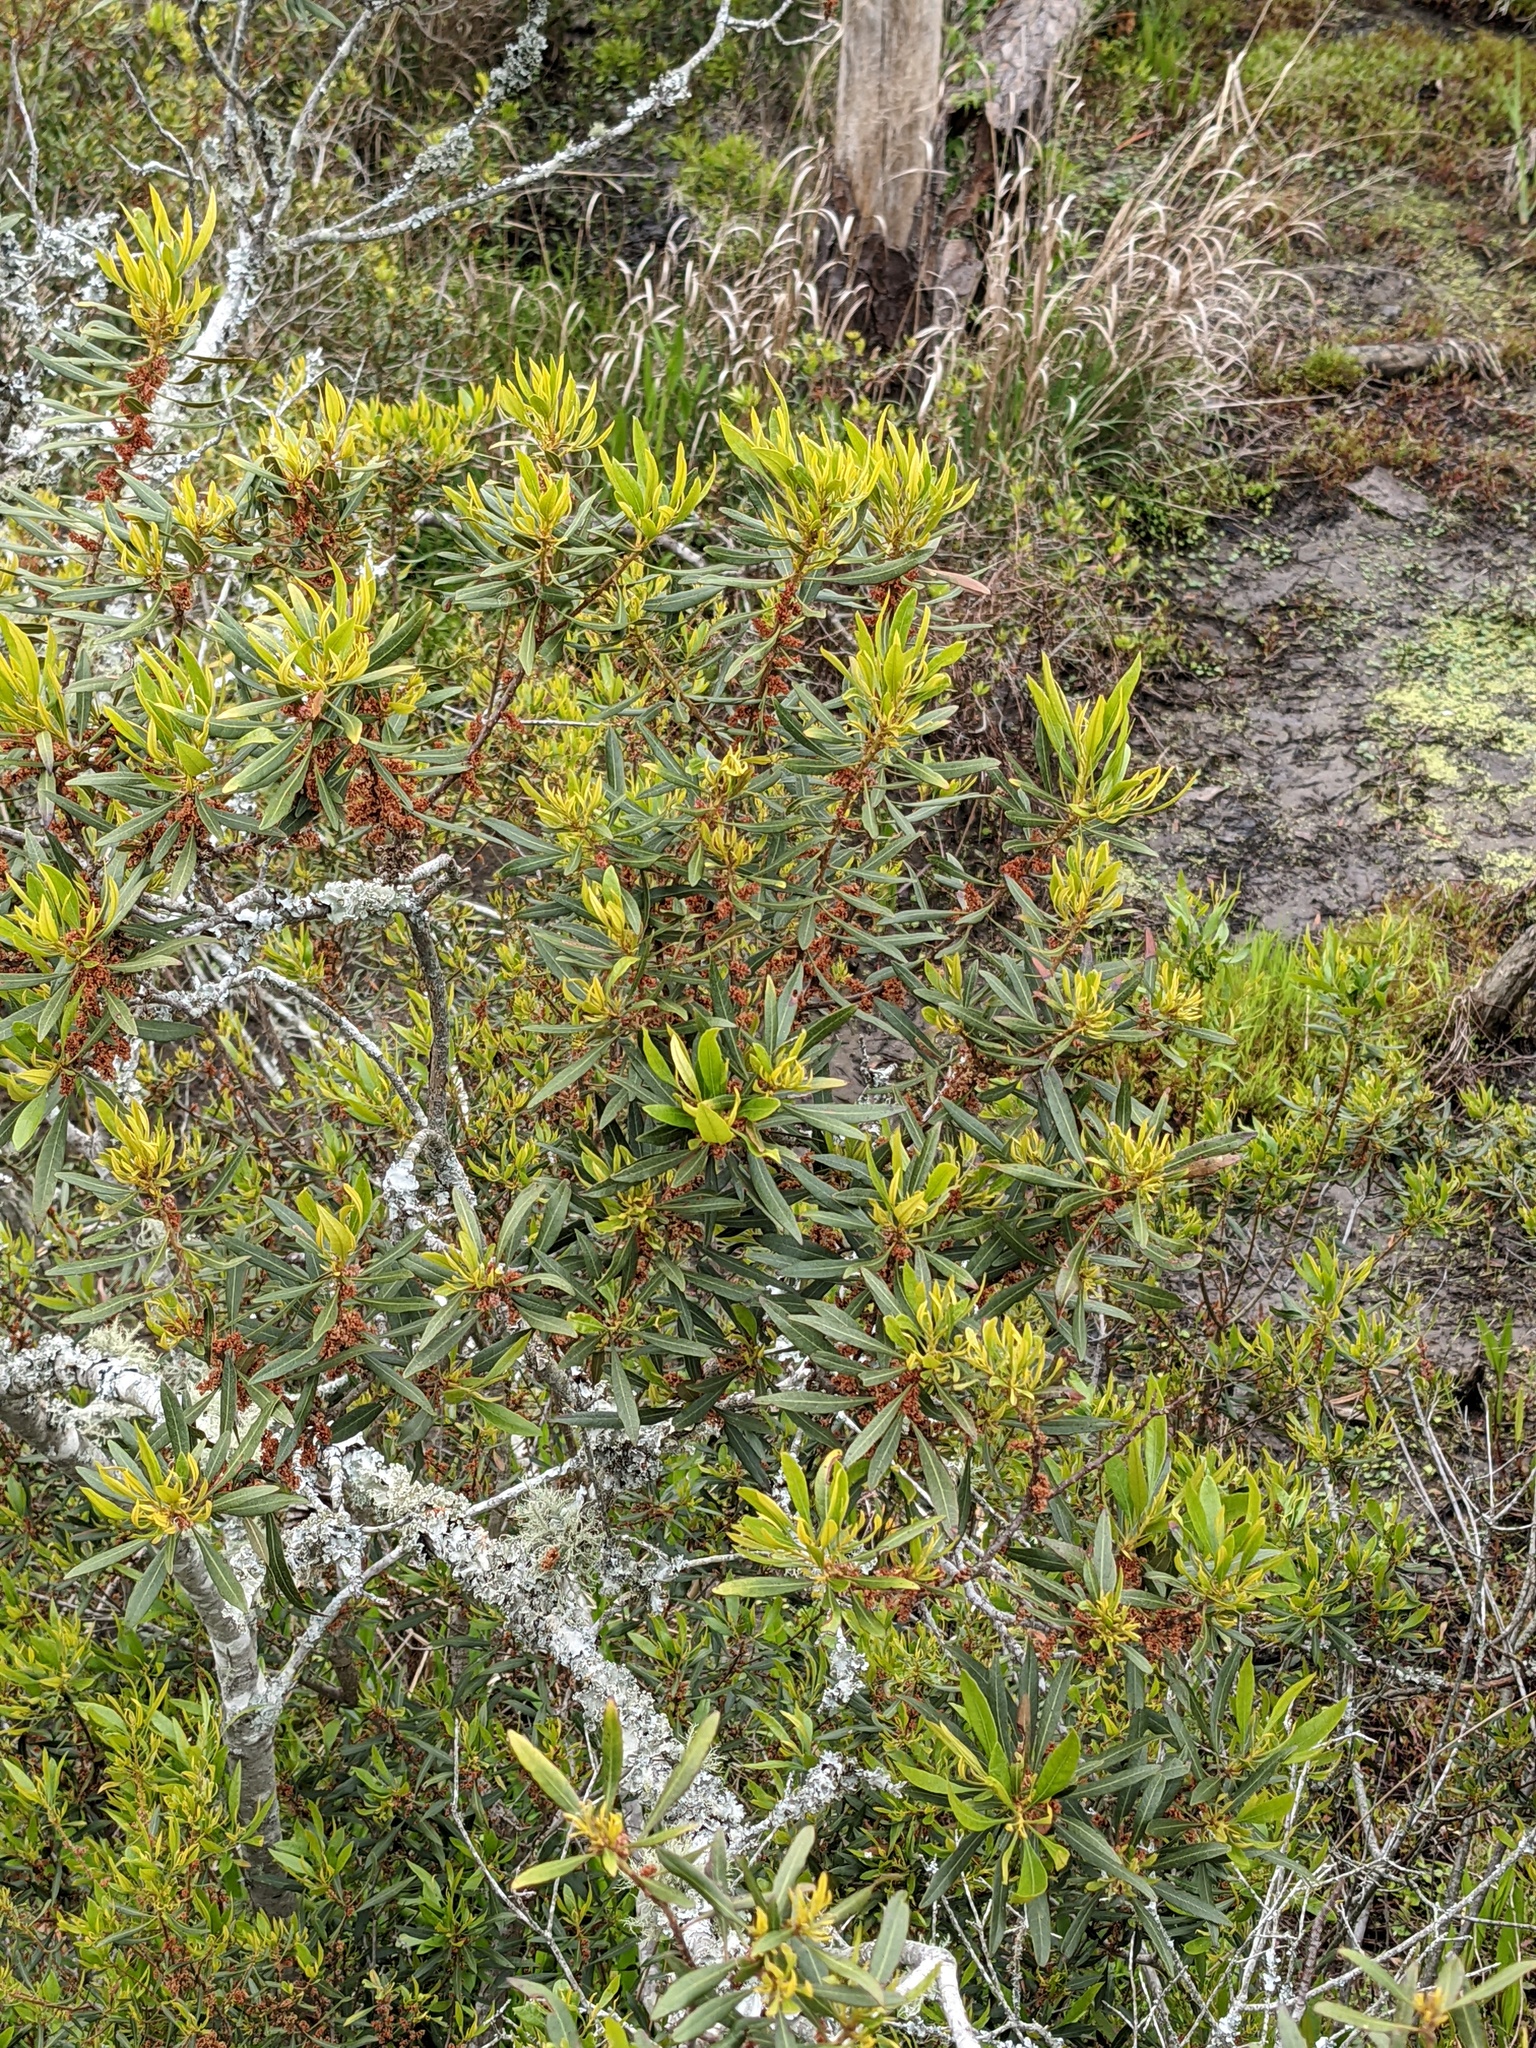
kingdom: Plantae
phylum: Tracheophyta
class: Magnoliopsida
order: Fagales
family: Myricaceae
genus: Morella
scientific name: Morella cerifera
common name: Wax myrtle
